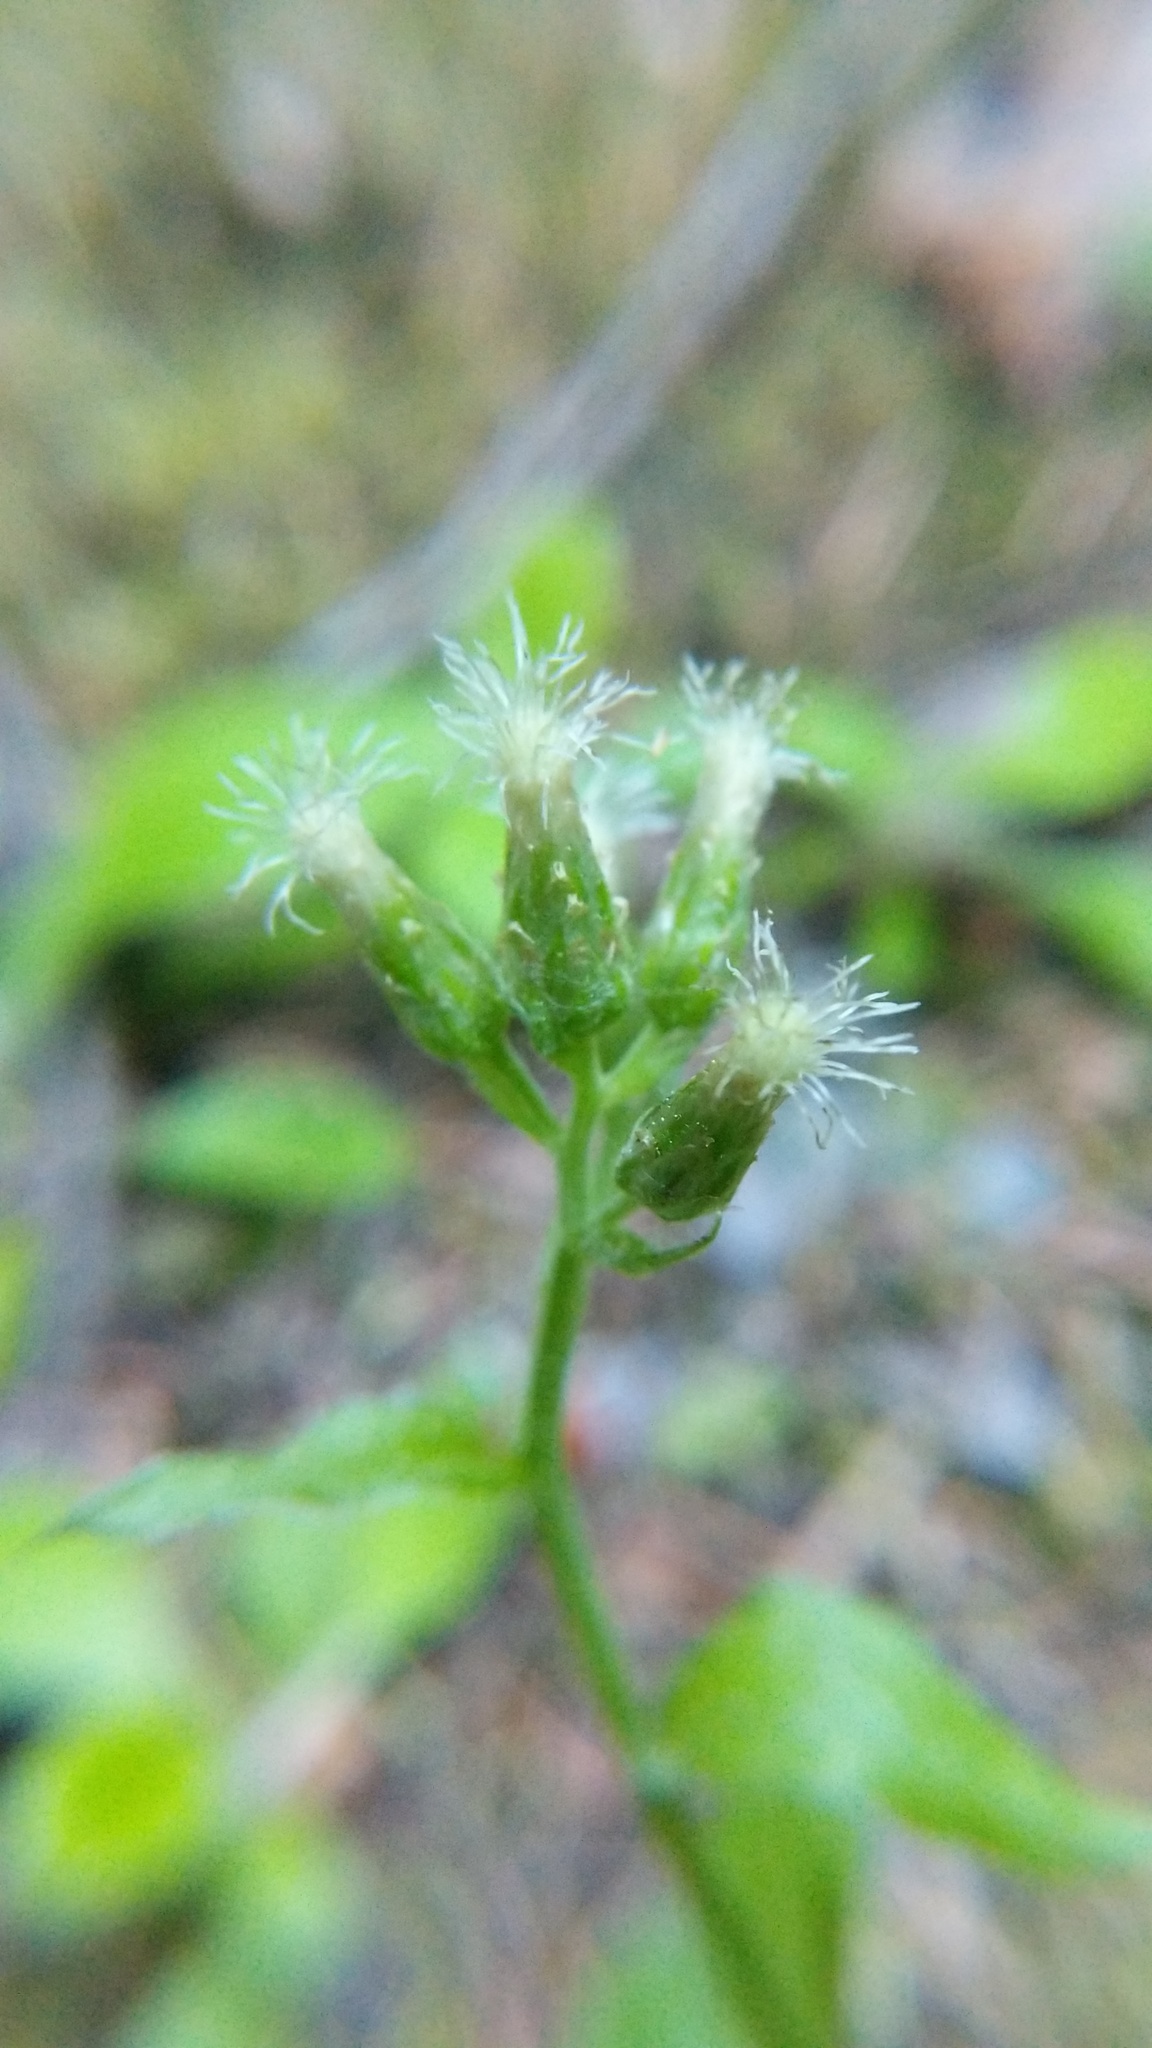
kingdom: Plantae
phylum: Tracheophyta
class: Magnoliopsida
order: Asterales
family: Asteraceae
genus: Antennaria
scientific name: Antennaria racemosa
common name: Racemose pussytoes
